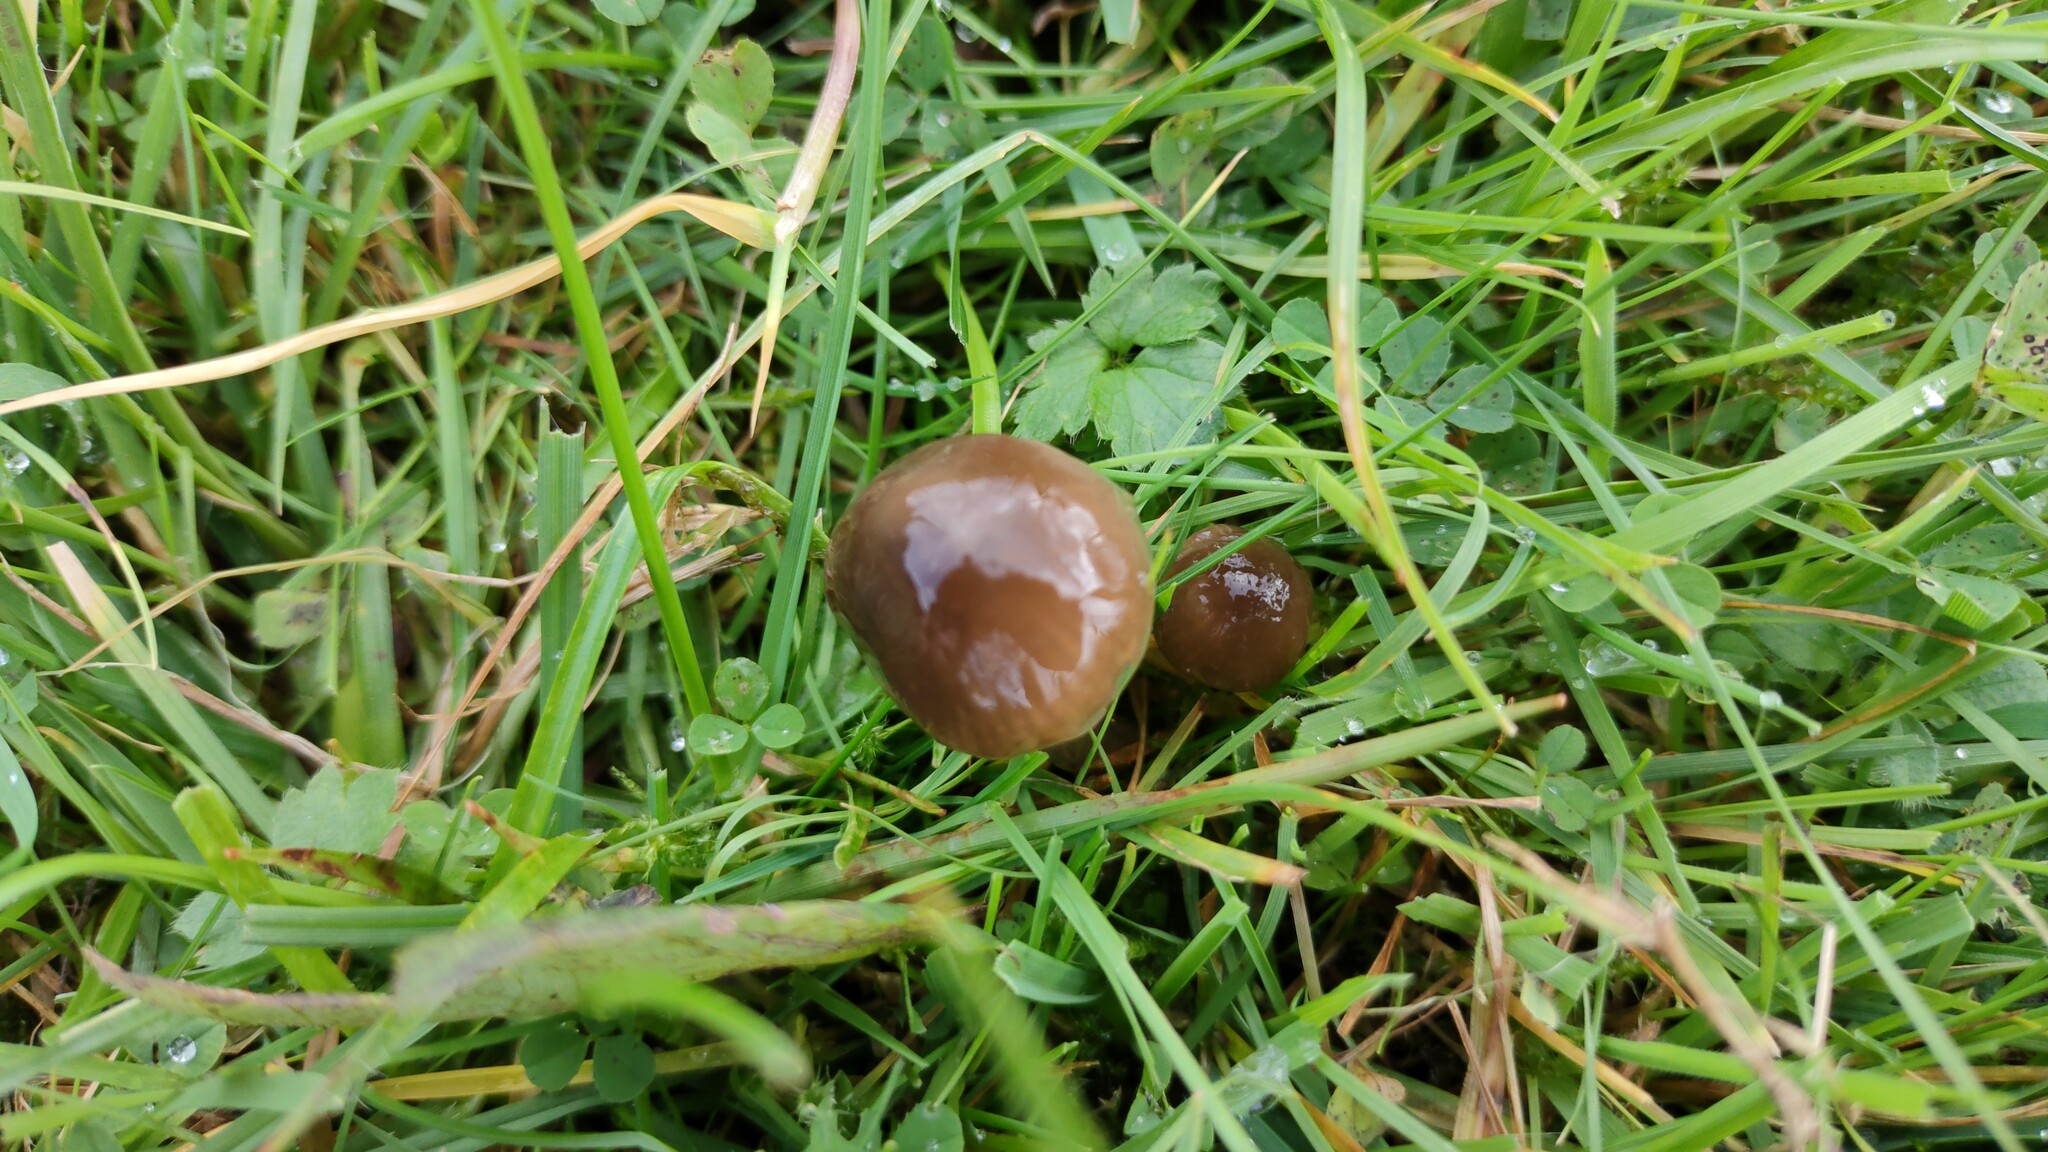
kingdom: Fungi
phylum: Basidiomycota
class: Agaricomycetes
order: Agaricales
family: Hygrophoraceae
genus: Gliophorus
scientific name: Gliophorus irrigatus
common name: Slimy waxcap
